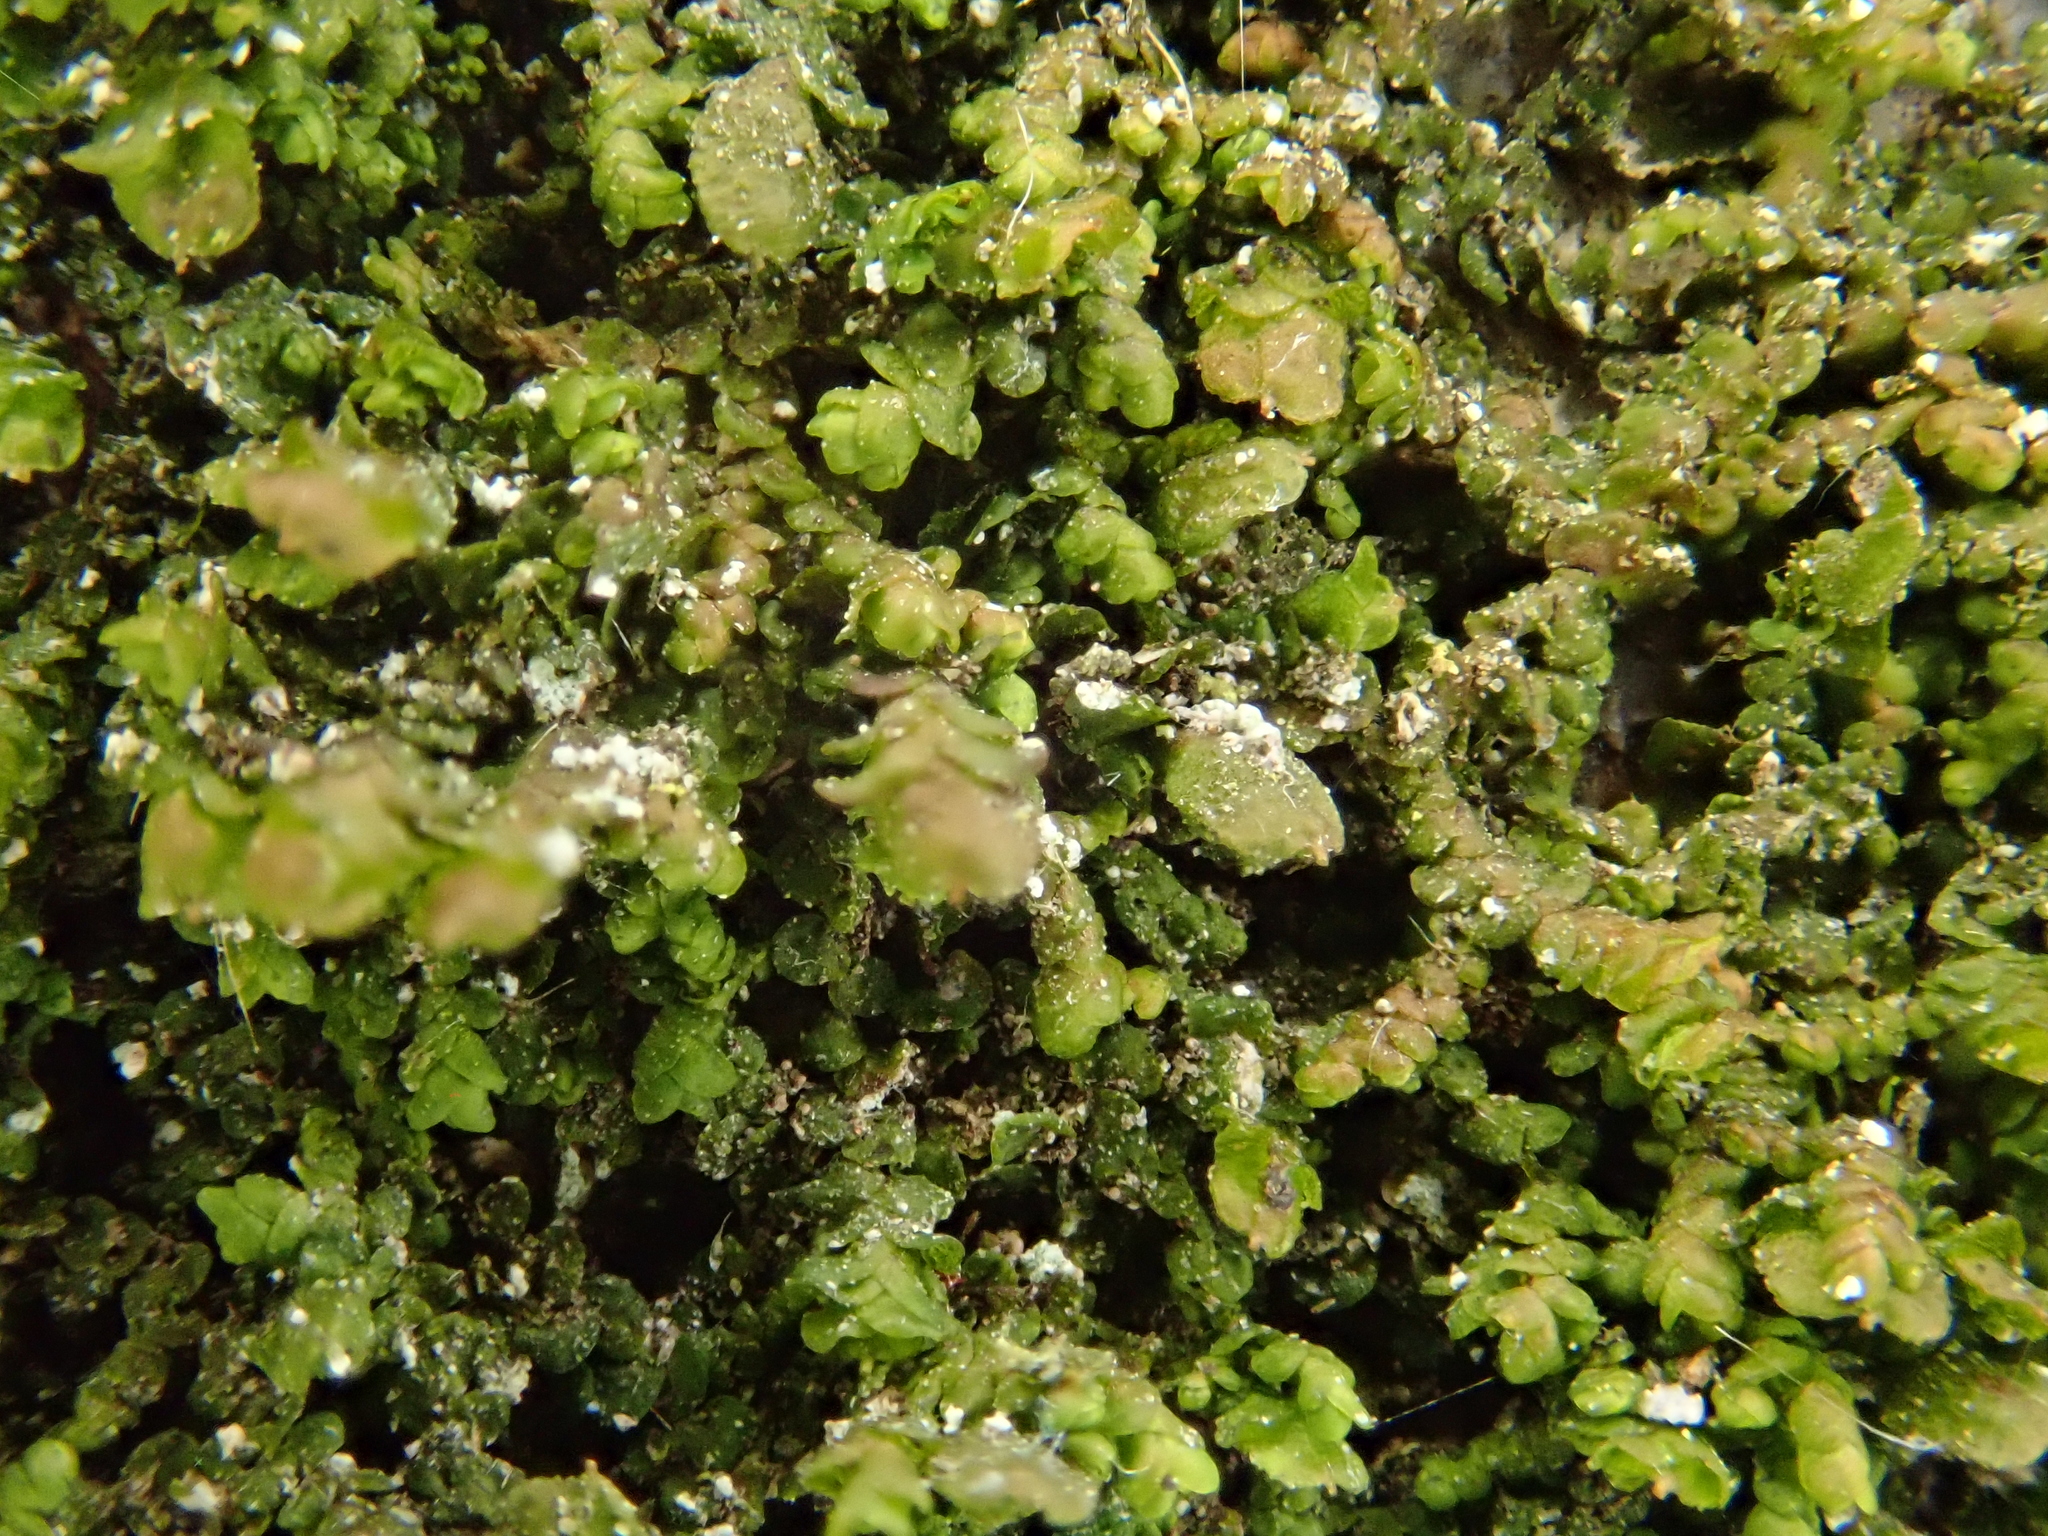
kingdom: Plantae
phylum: Marchantiophyta
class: Jungermanniopsida
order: Porellales
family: Frullaniaceae
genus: Frullania
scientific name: Frullania dilatata
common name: Dilated scalewort
